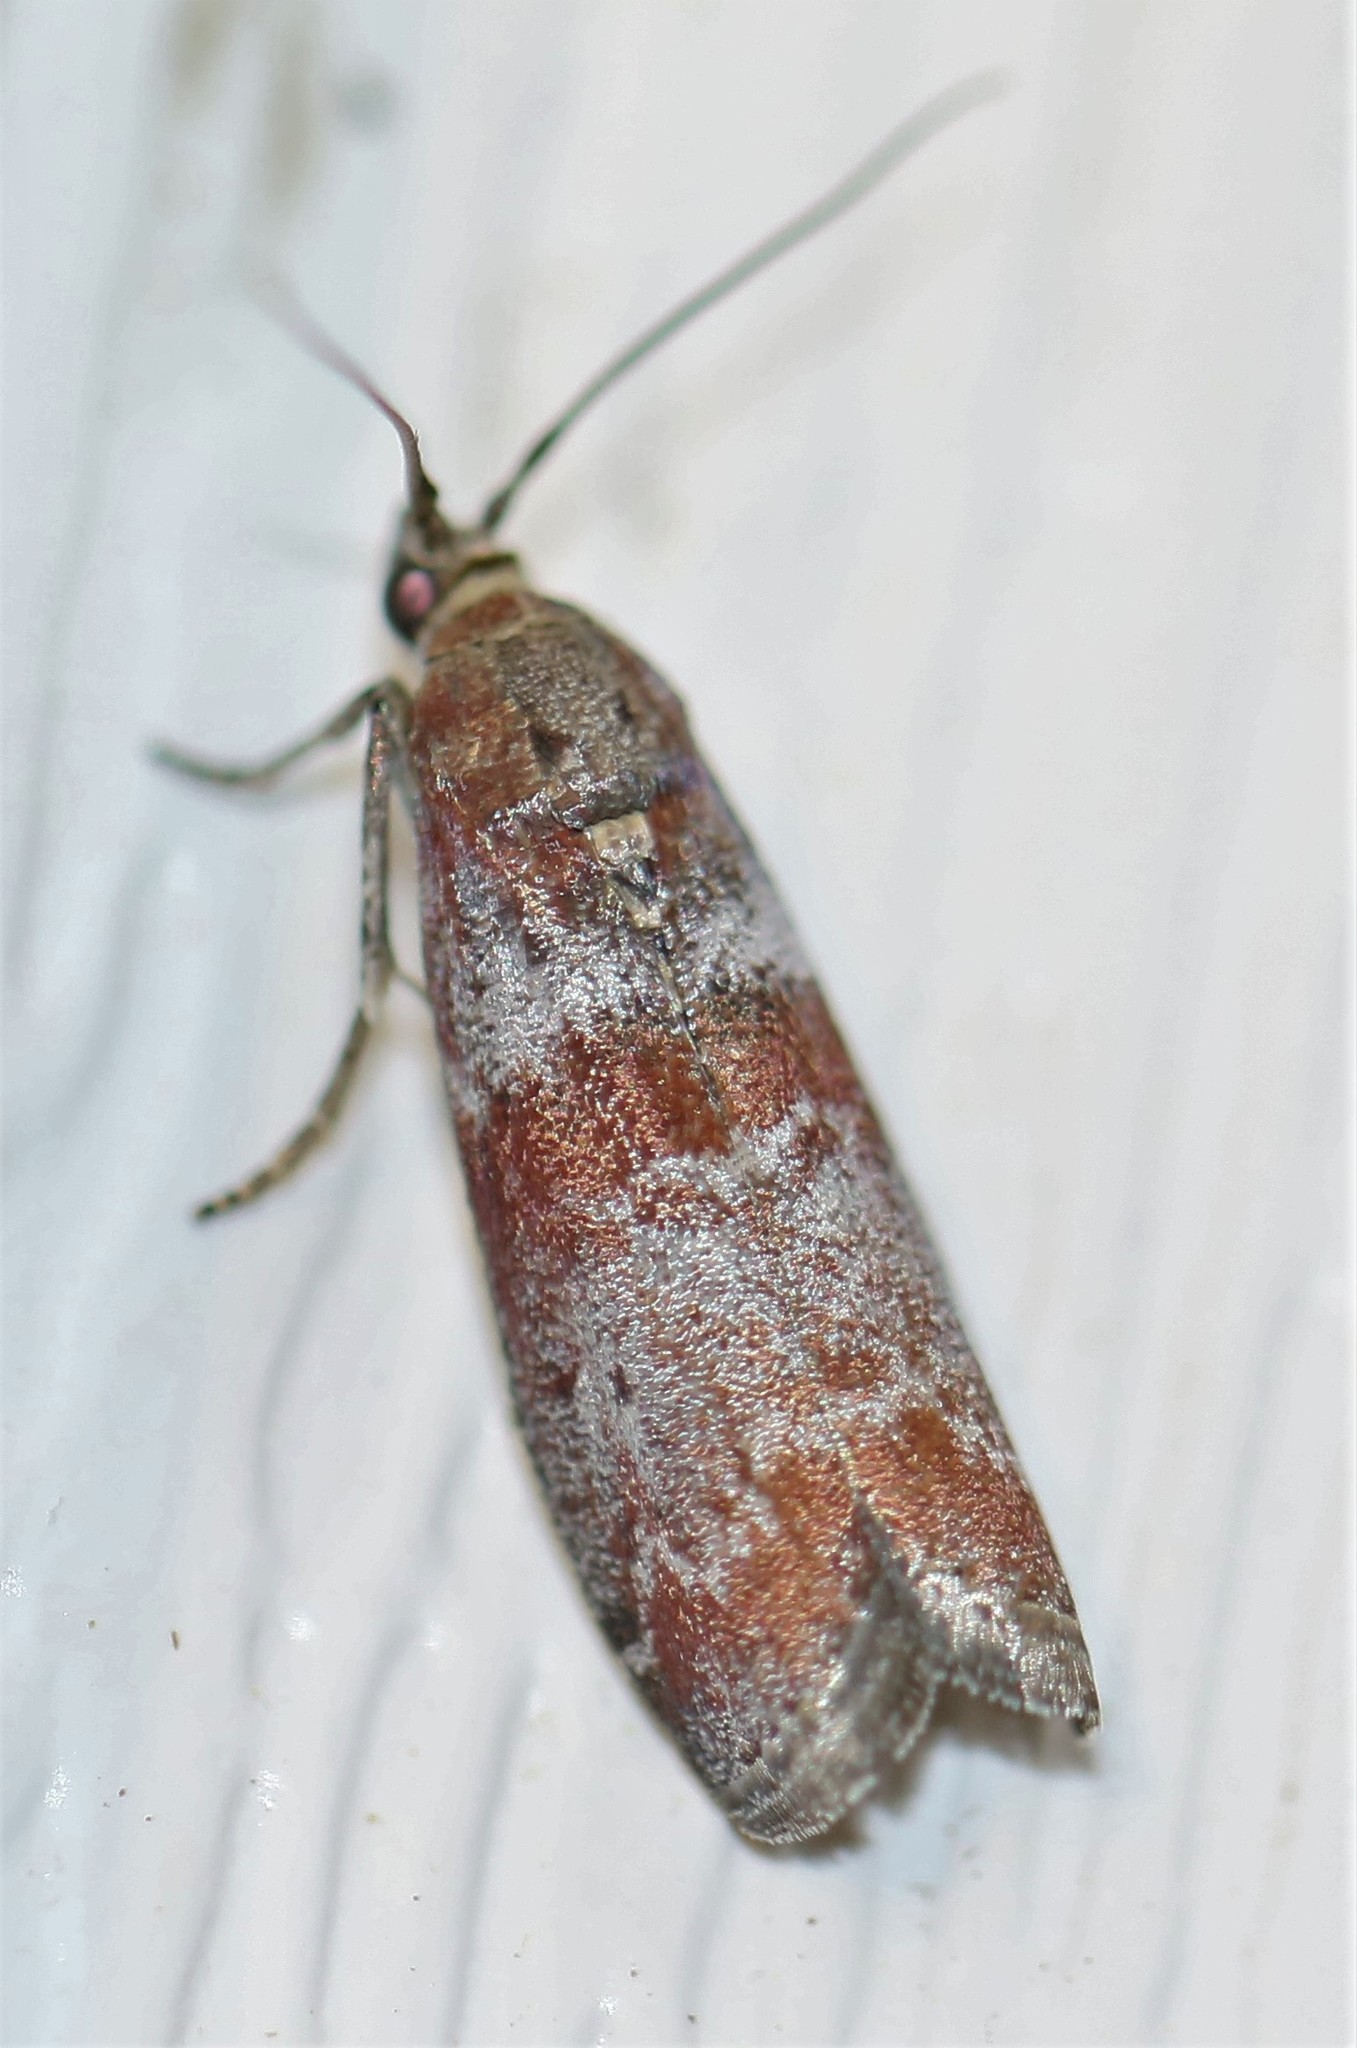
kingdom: Animalia
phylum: Arthropoda
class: Insecta
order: Lepidoptera
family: Pyralidae
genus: Sciota
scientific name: Sciota carneella
